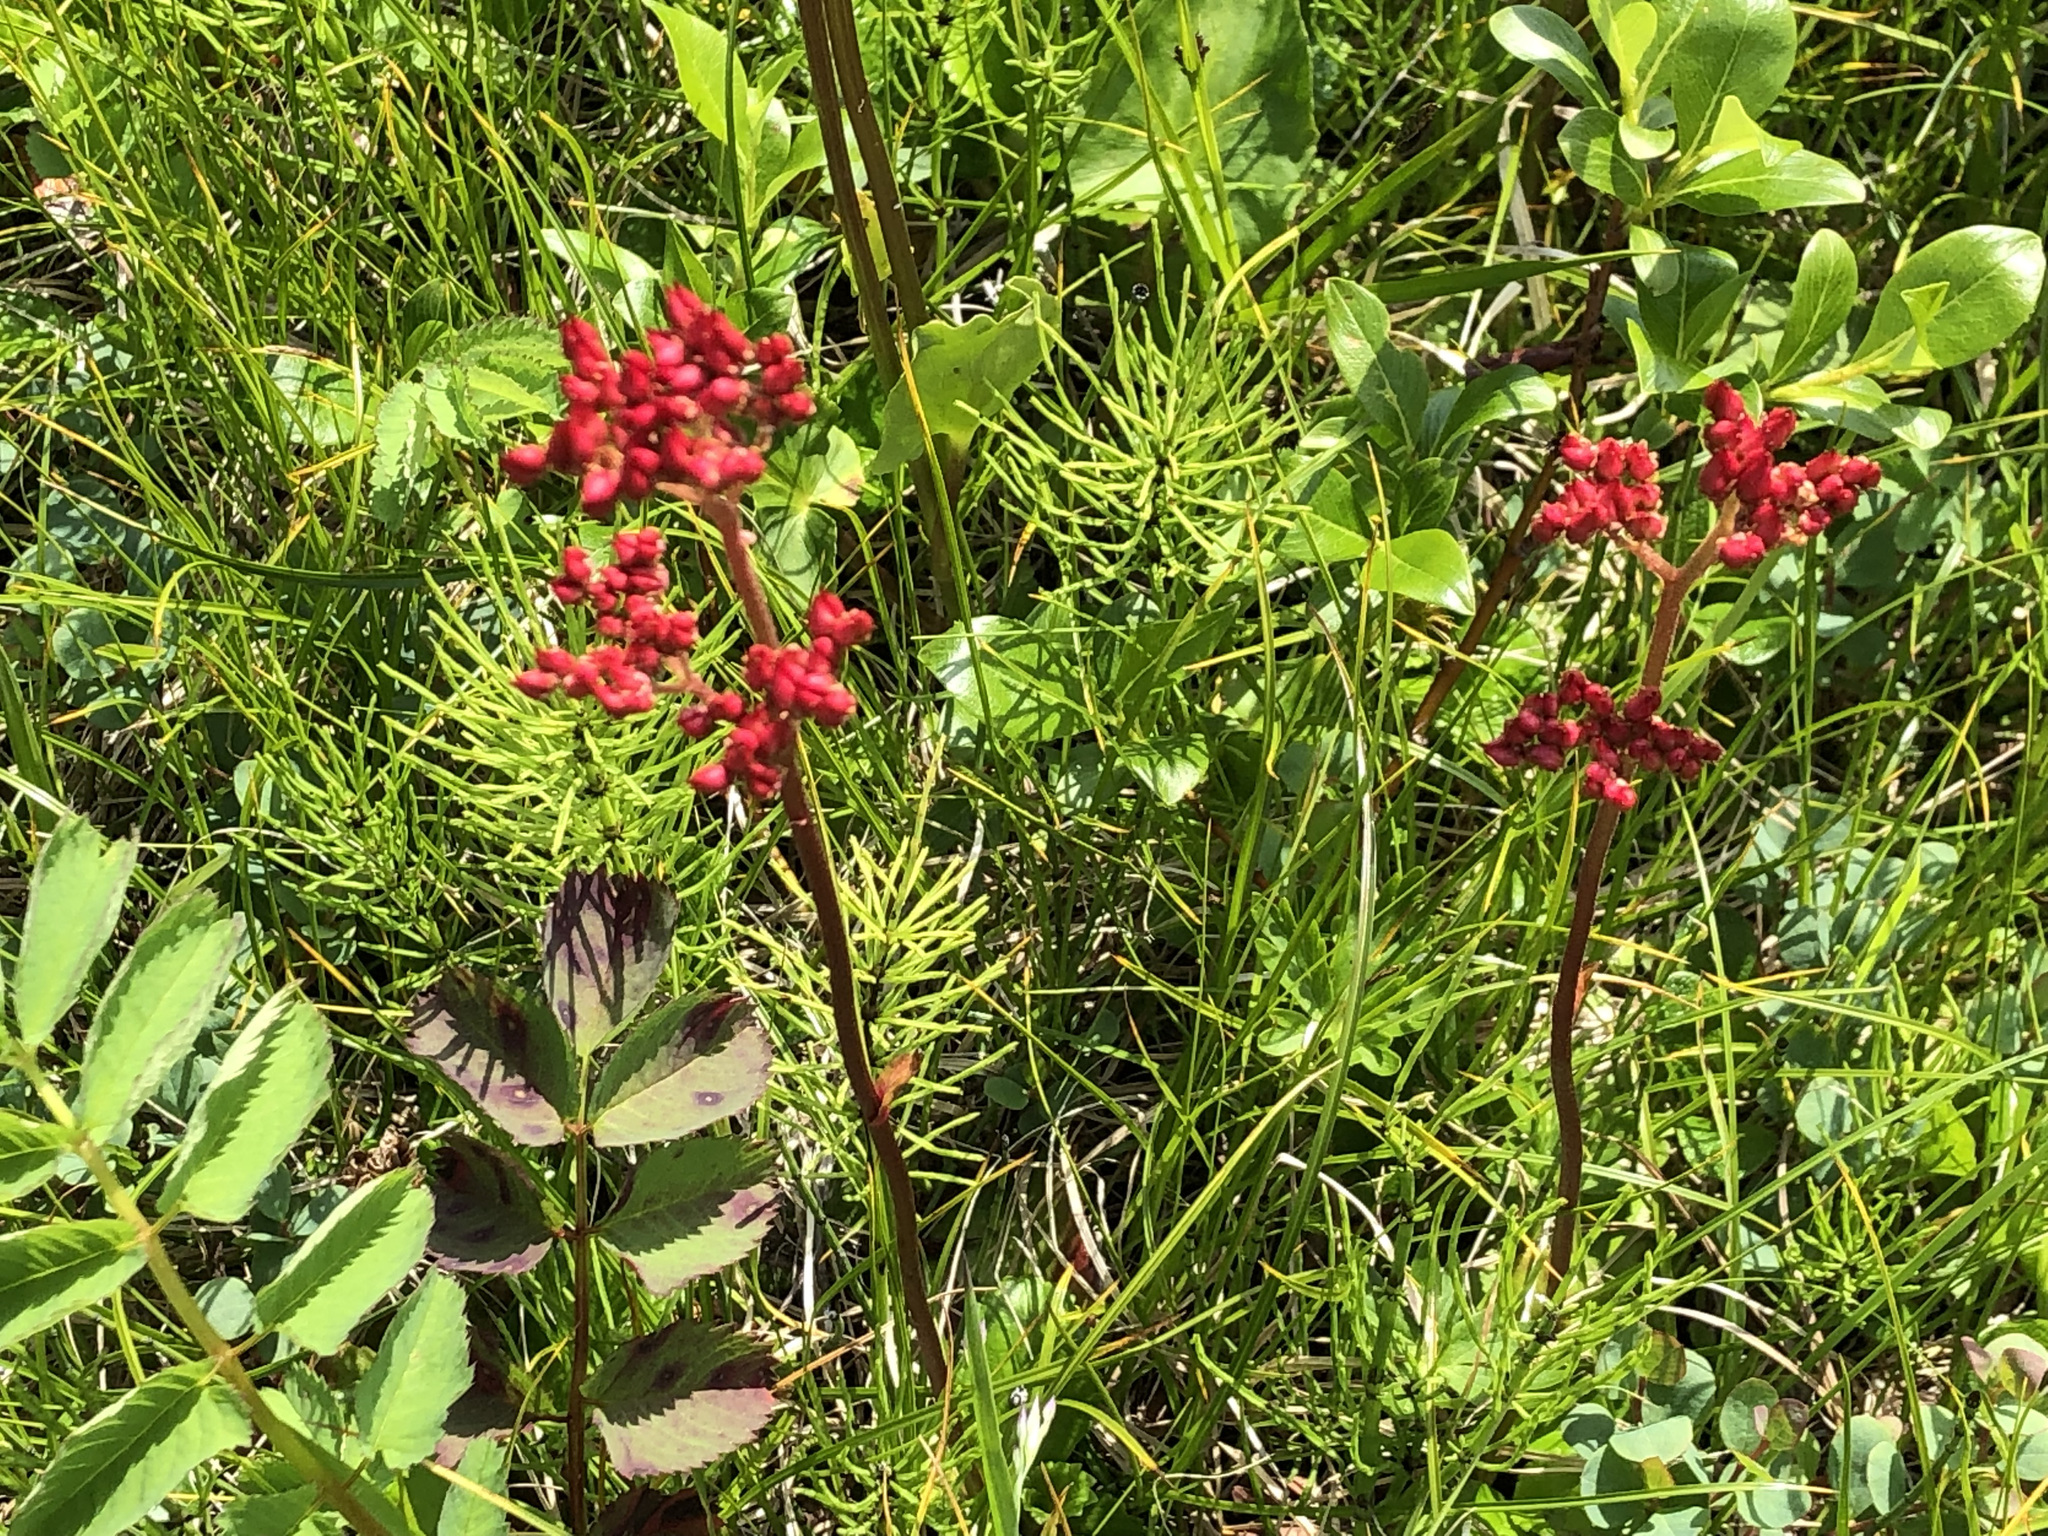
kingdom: Plantae
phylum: Tracheophyta
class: Magnoliopsida
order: Saxifragales
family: Saxifragaceae
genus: Leptarrhena
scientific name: Leptarrhena pyrolifolia
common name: Leatherleaf-saxifrage
